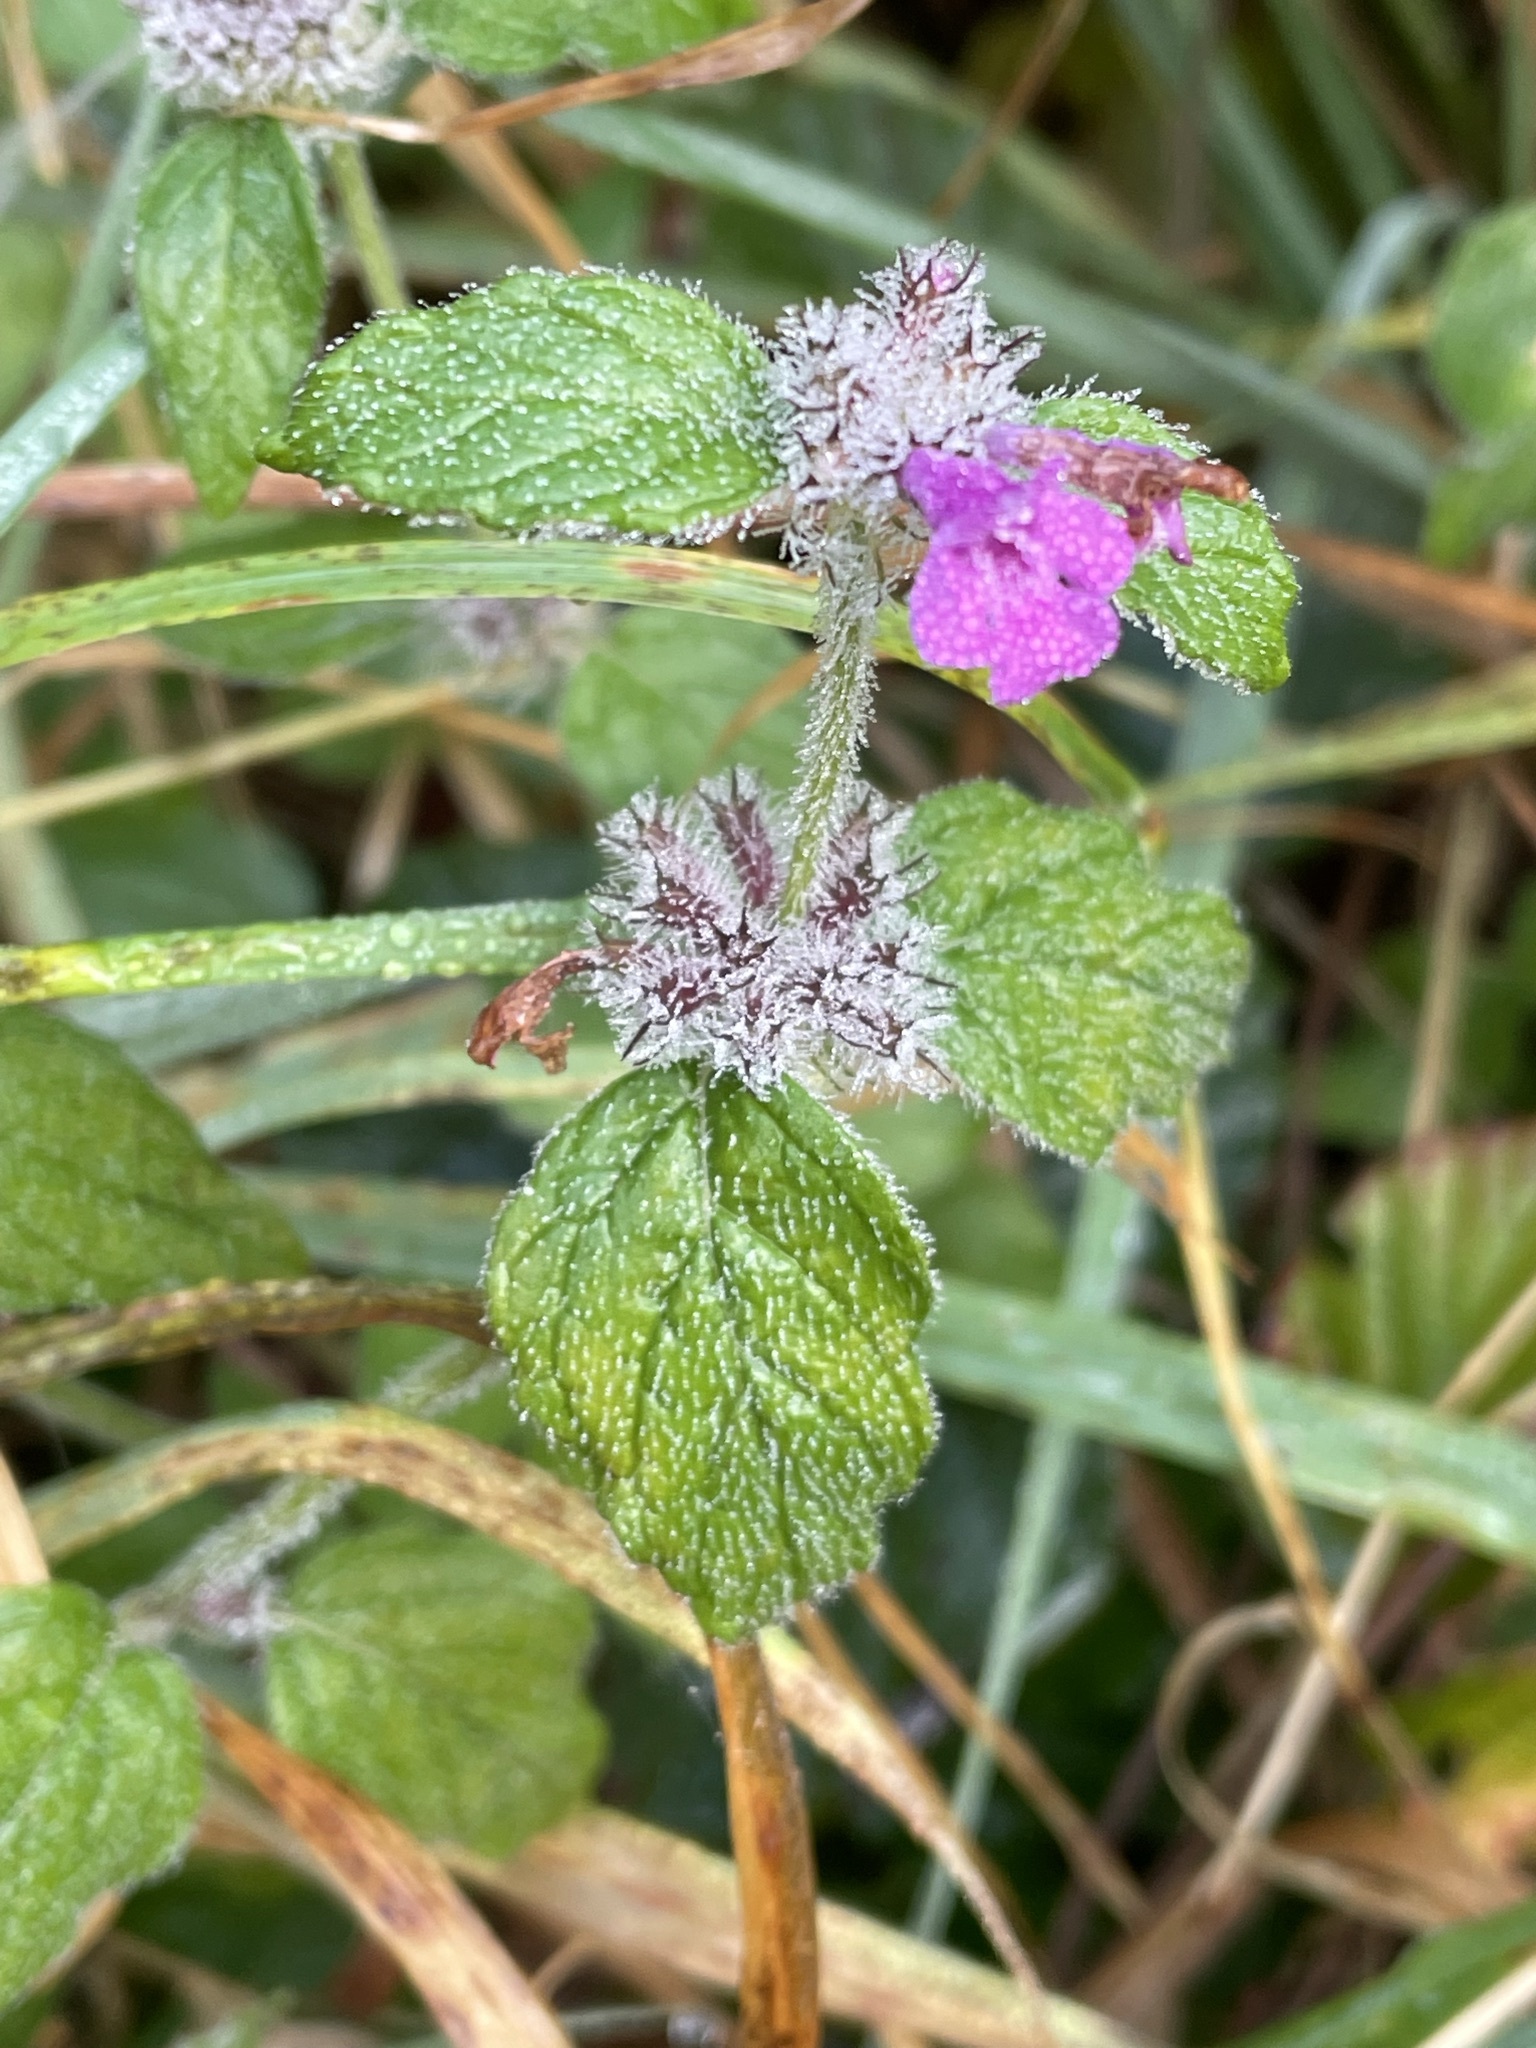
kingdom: Plantae
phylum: Tracheophyta
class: Magnoliopsida
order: Lamiales
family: Lamiaceae
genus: Clinopodium
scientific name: Clinopodium vulgare
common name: Wild basil
